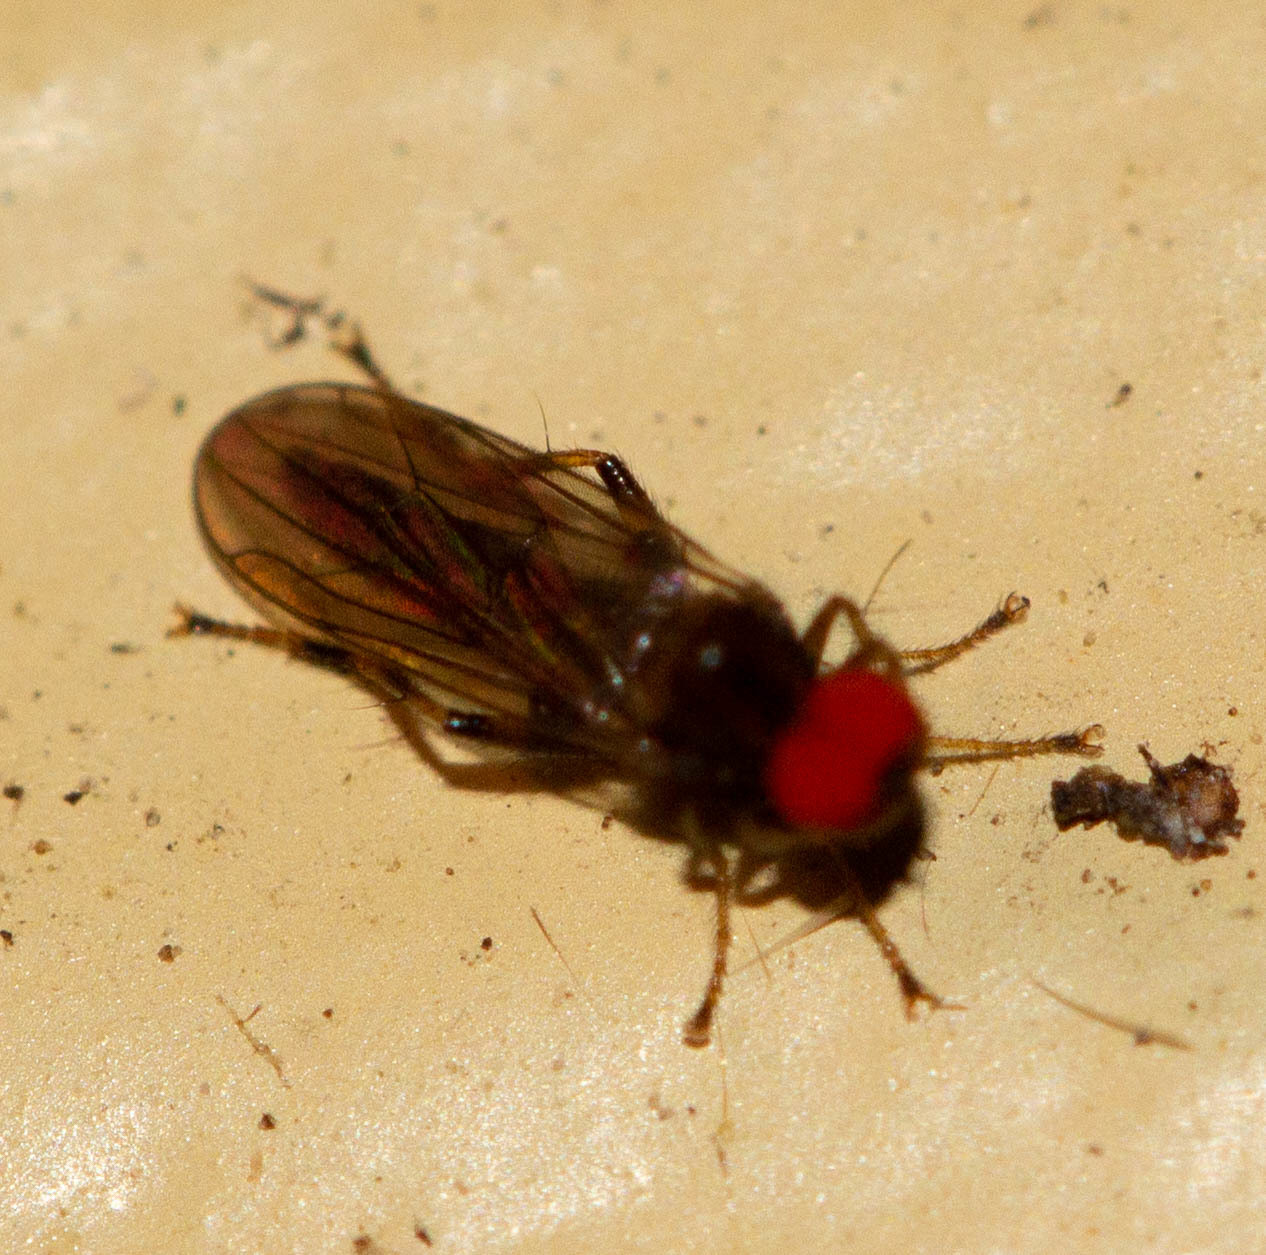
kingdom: Animalia
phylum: Arthropoda
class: Insecta
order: Diptera
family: Hybotidae
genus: Syneches
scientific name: Syneches debilis
